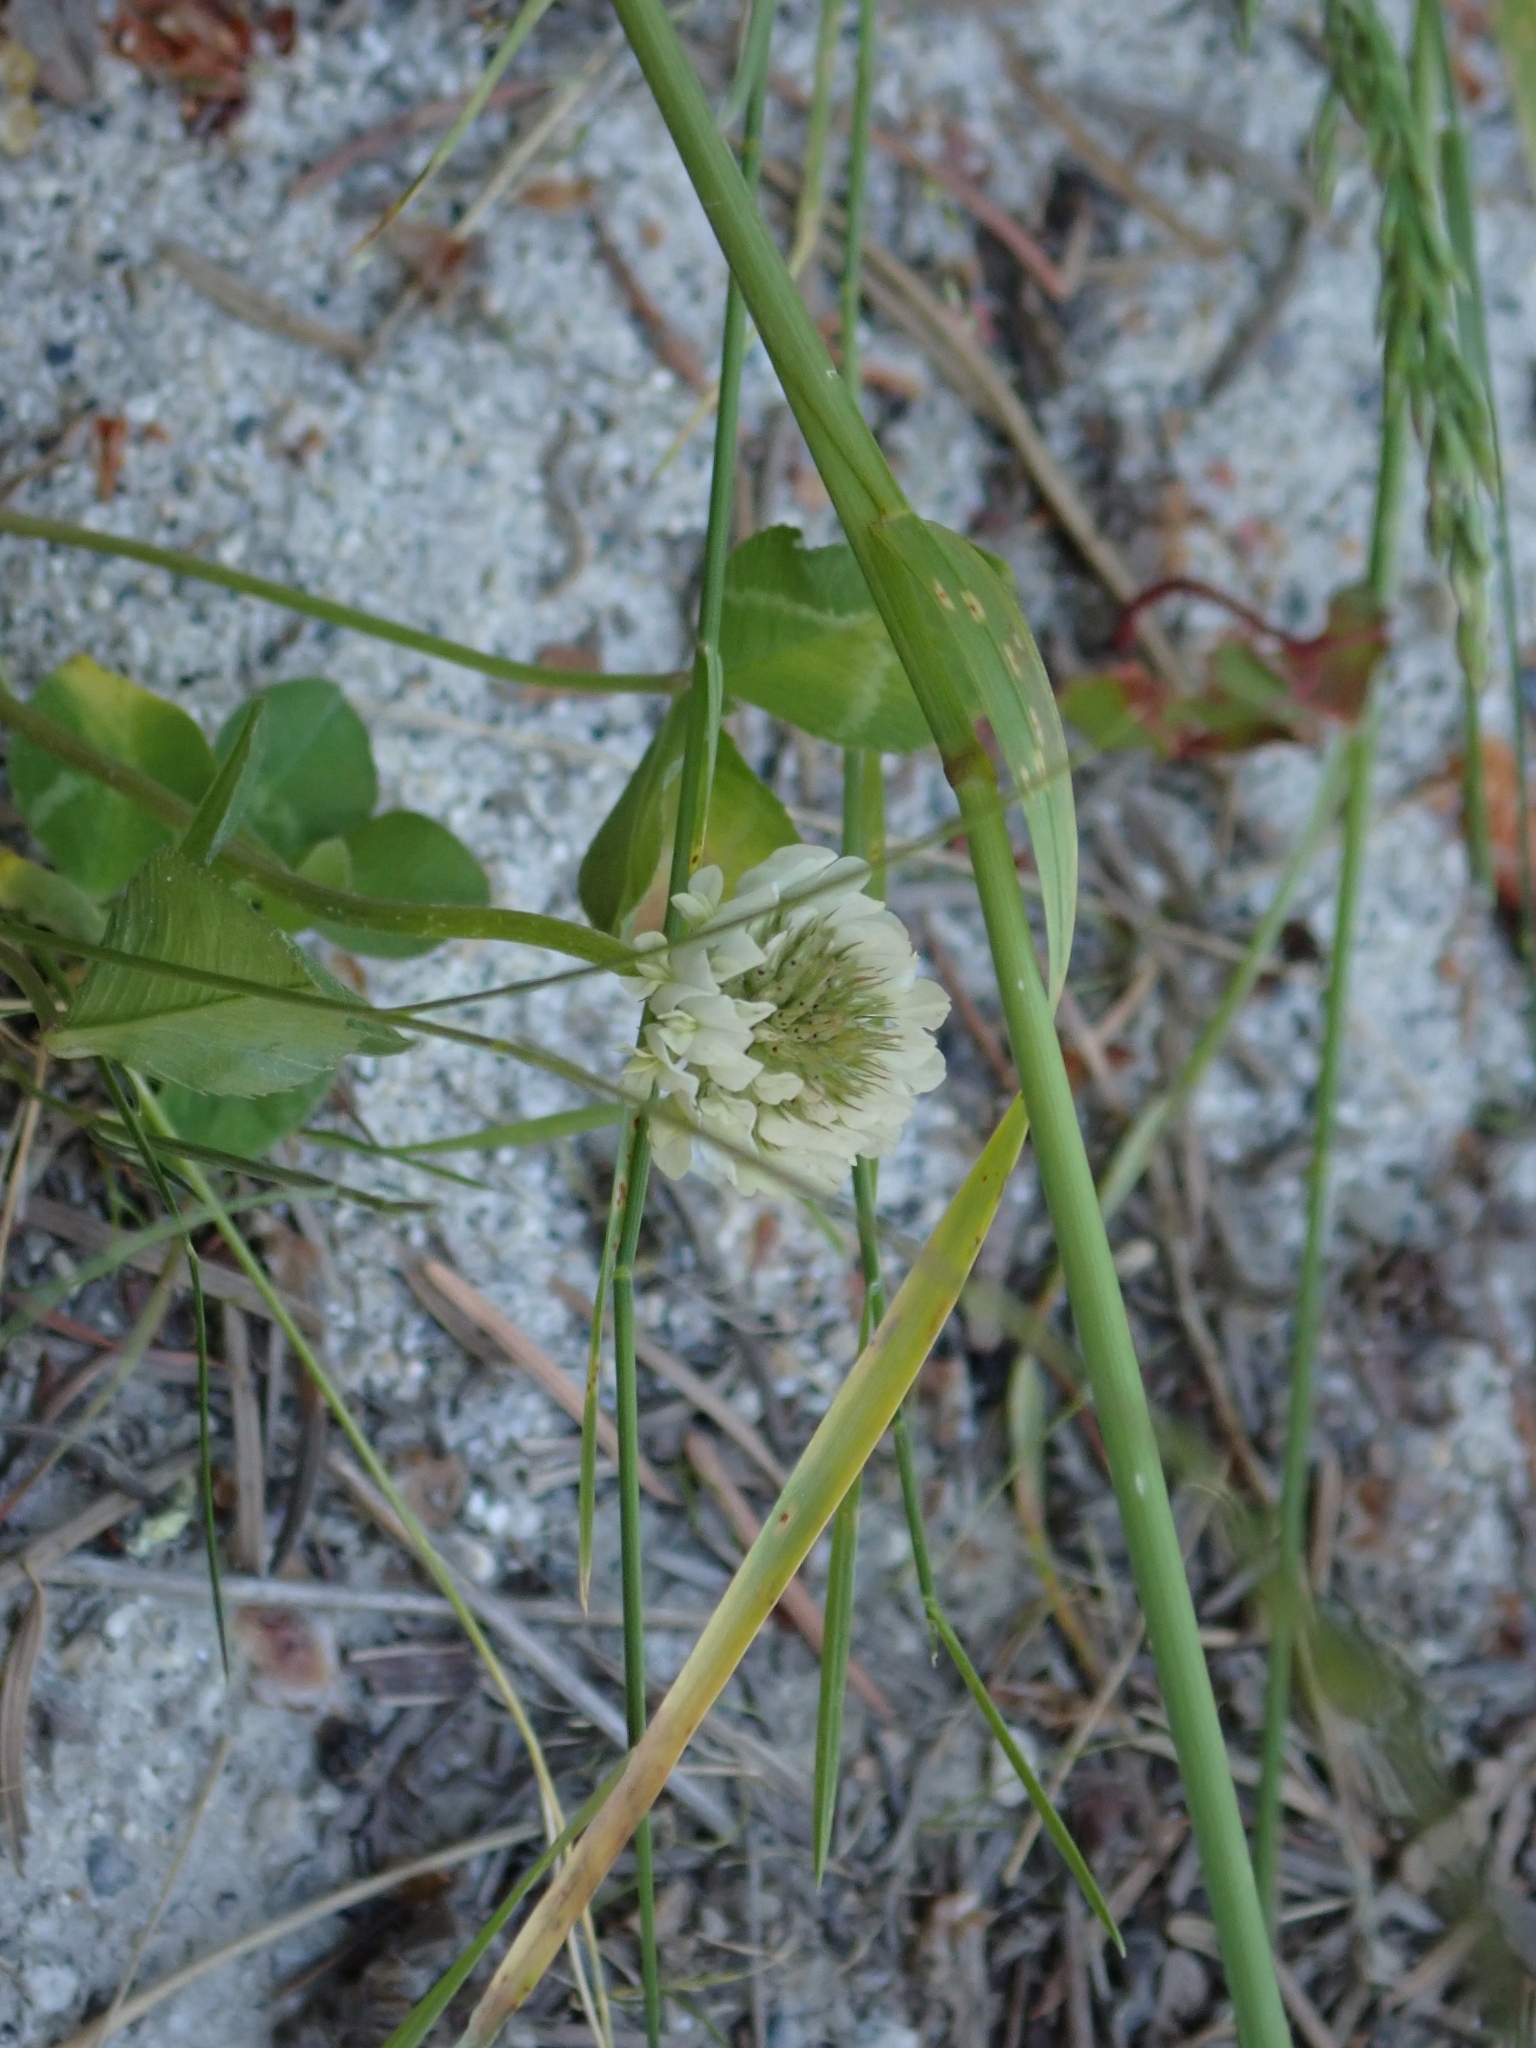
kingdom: Plantae
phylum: Tracheophyta
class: Magnoliopsida
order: Fabales
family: Fabaceae
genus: Trifolium
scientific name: Trifolium repens
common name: White clover
